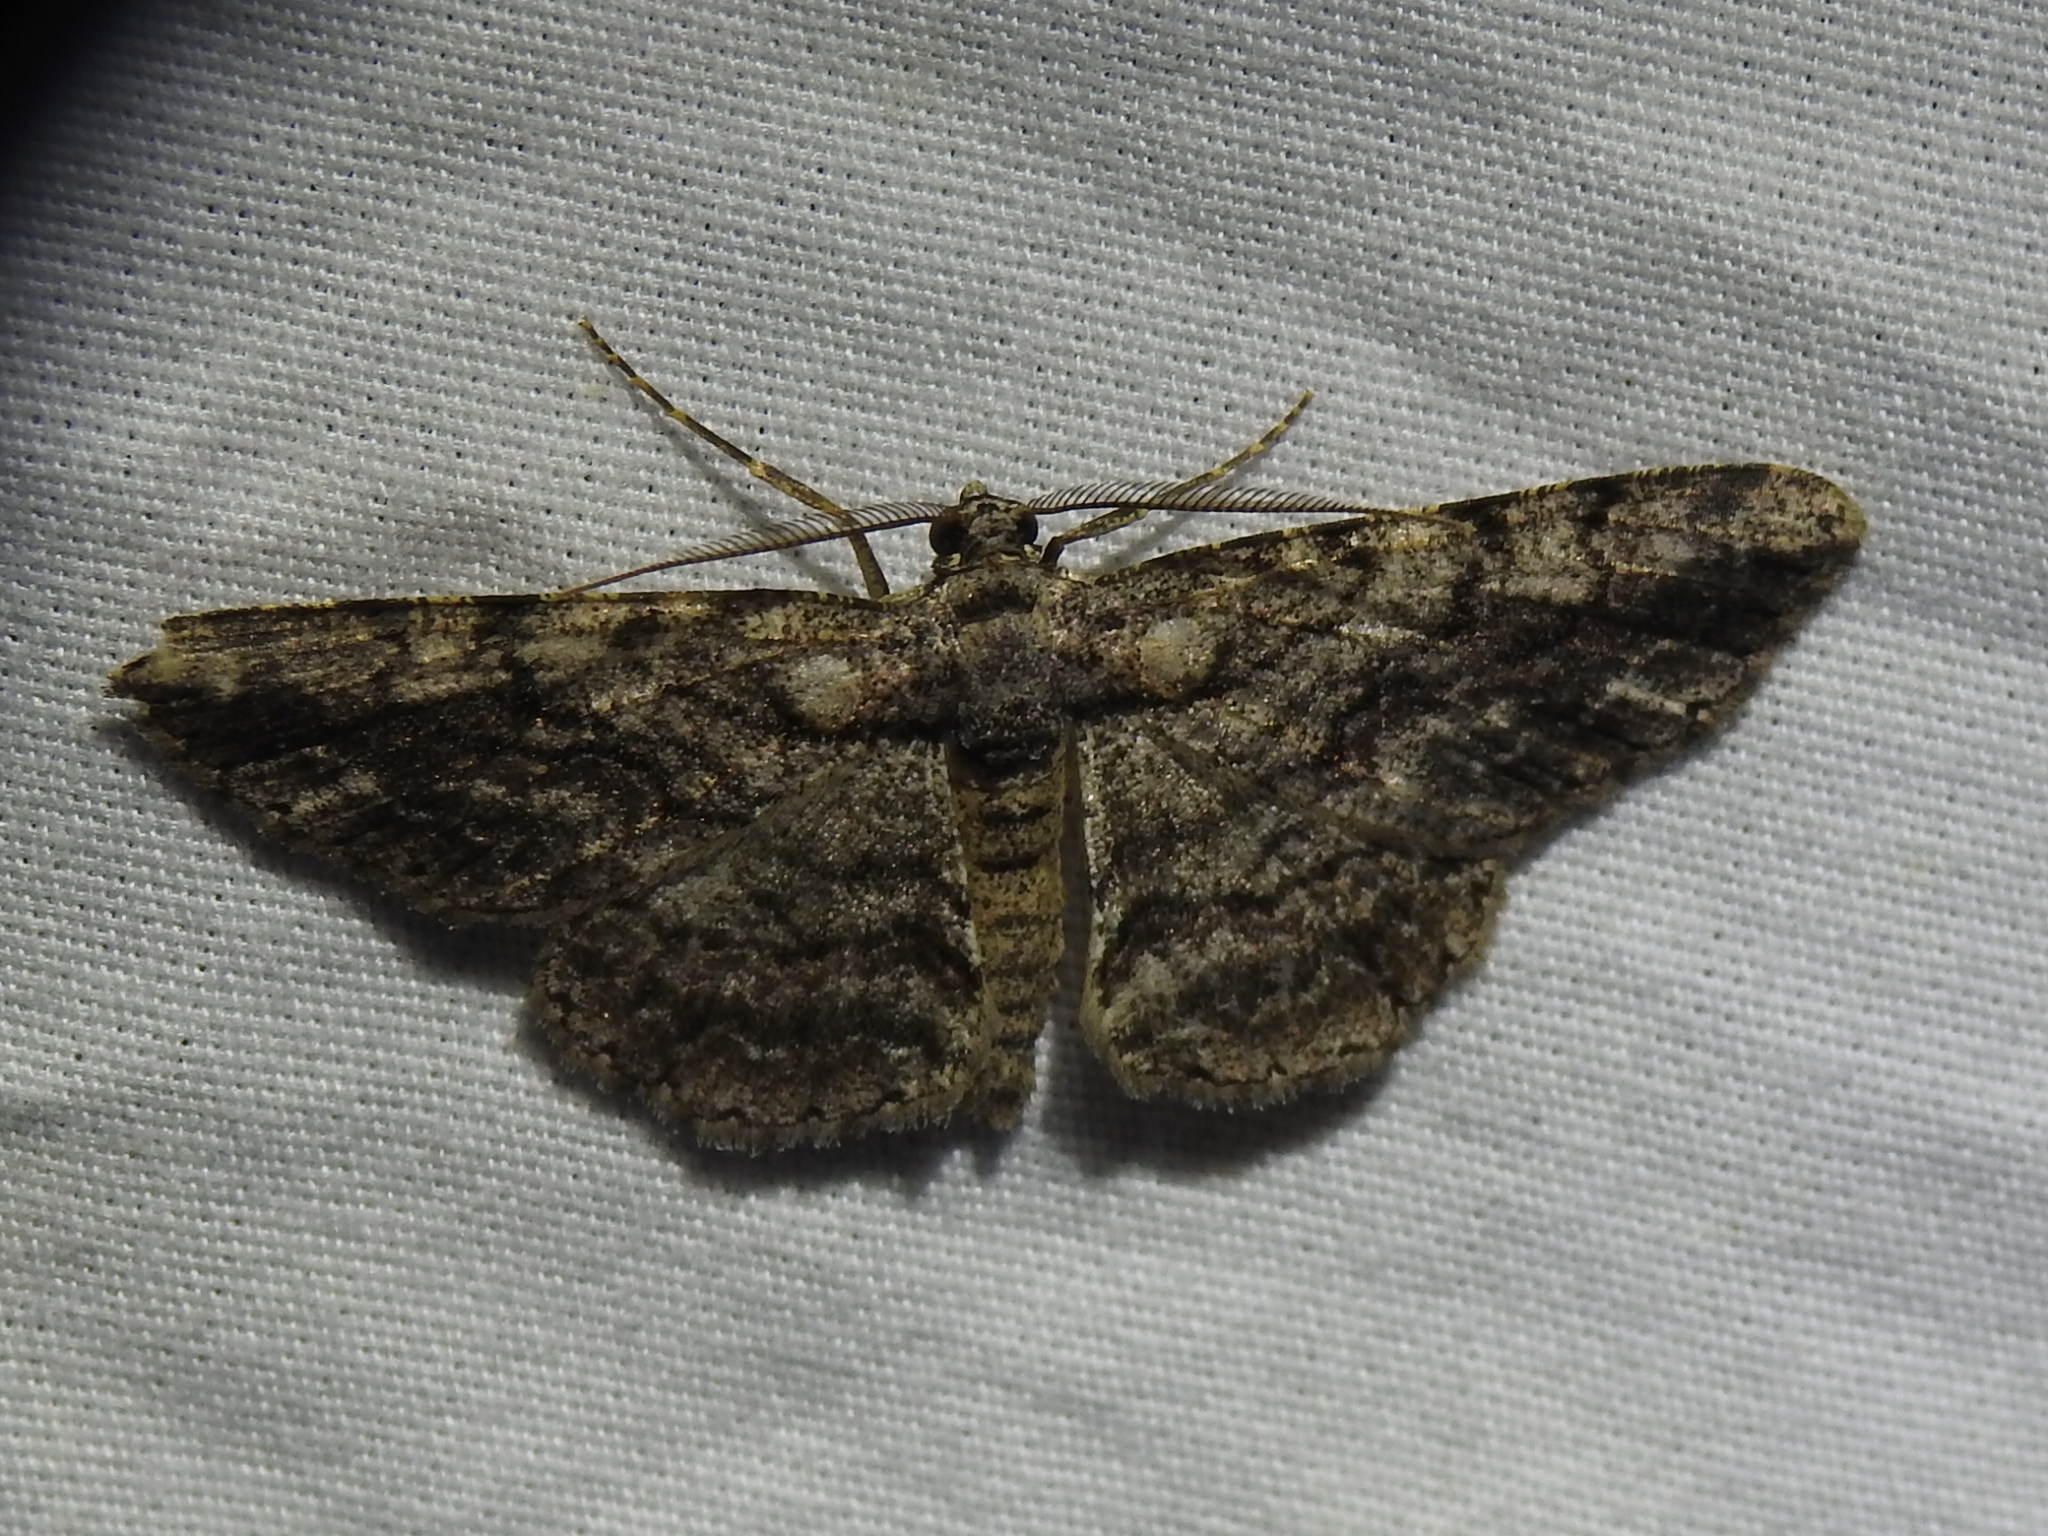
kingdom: Animalia
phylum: Arthropoda
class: Insecta
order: Lepidoptera
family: Geometridae
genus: Anavitrinella
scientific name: Anavitrinella pampinaria
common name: Common gray
